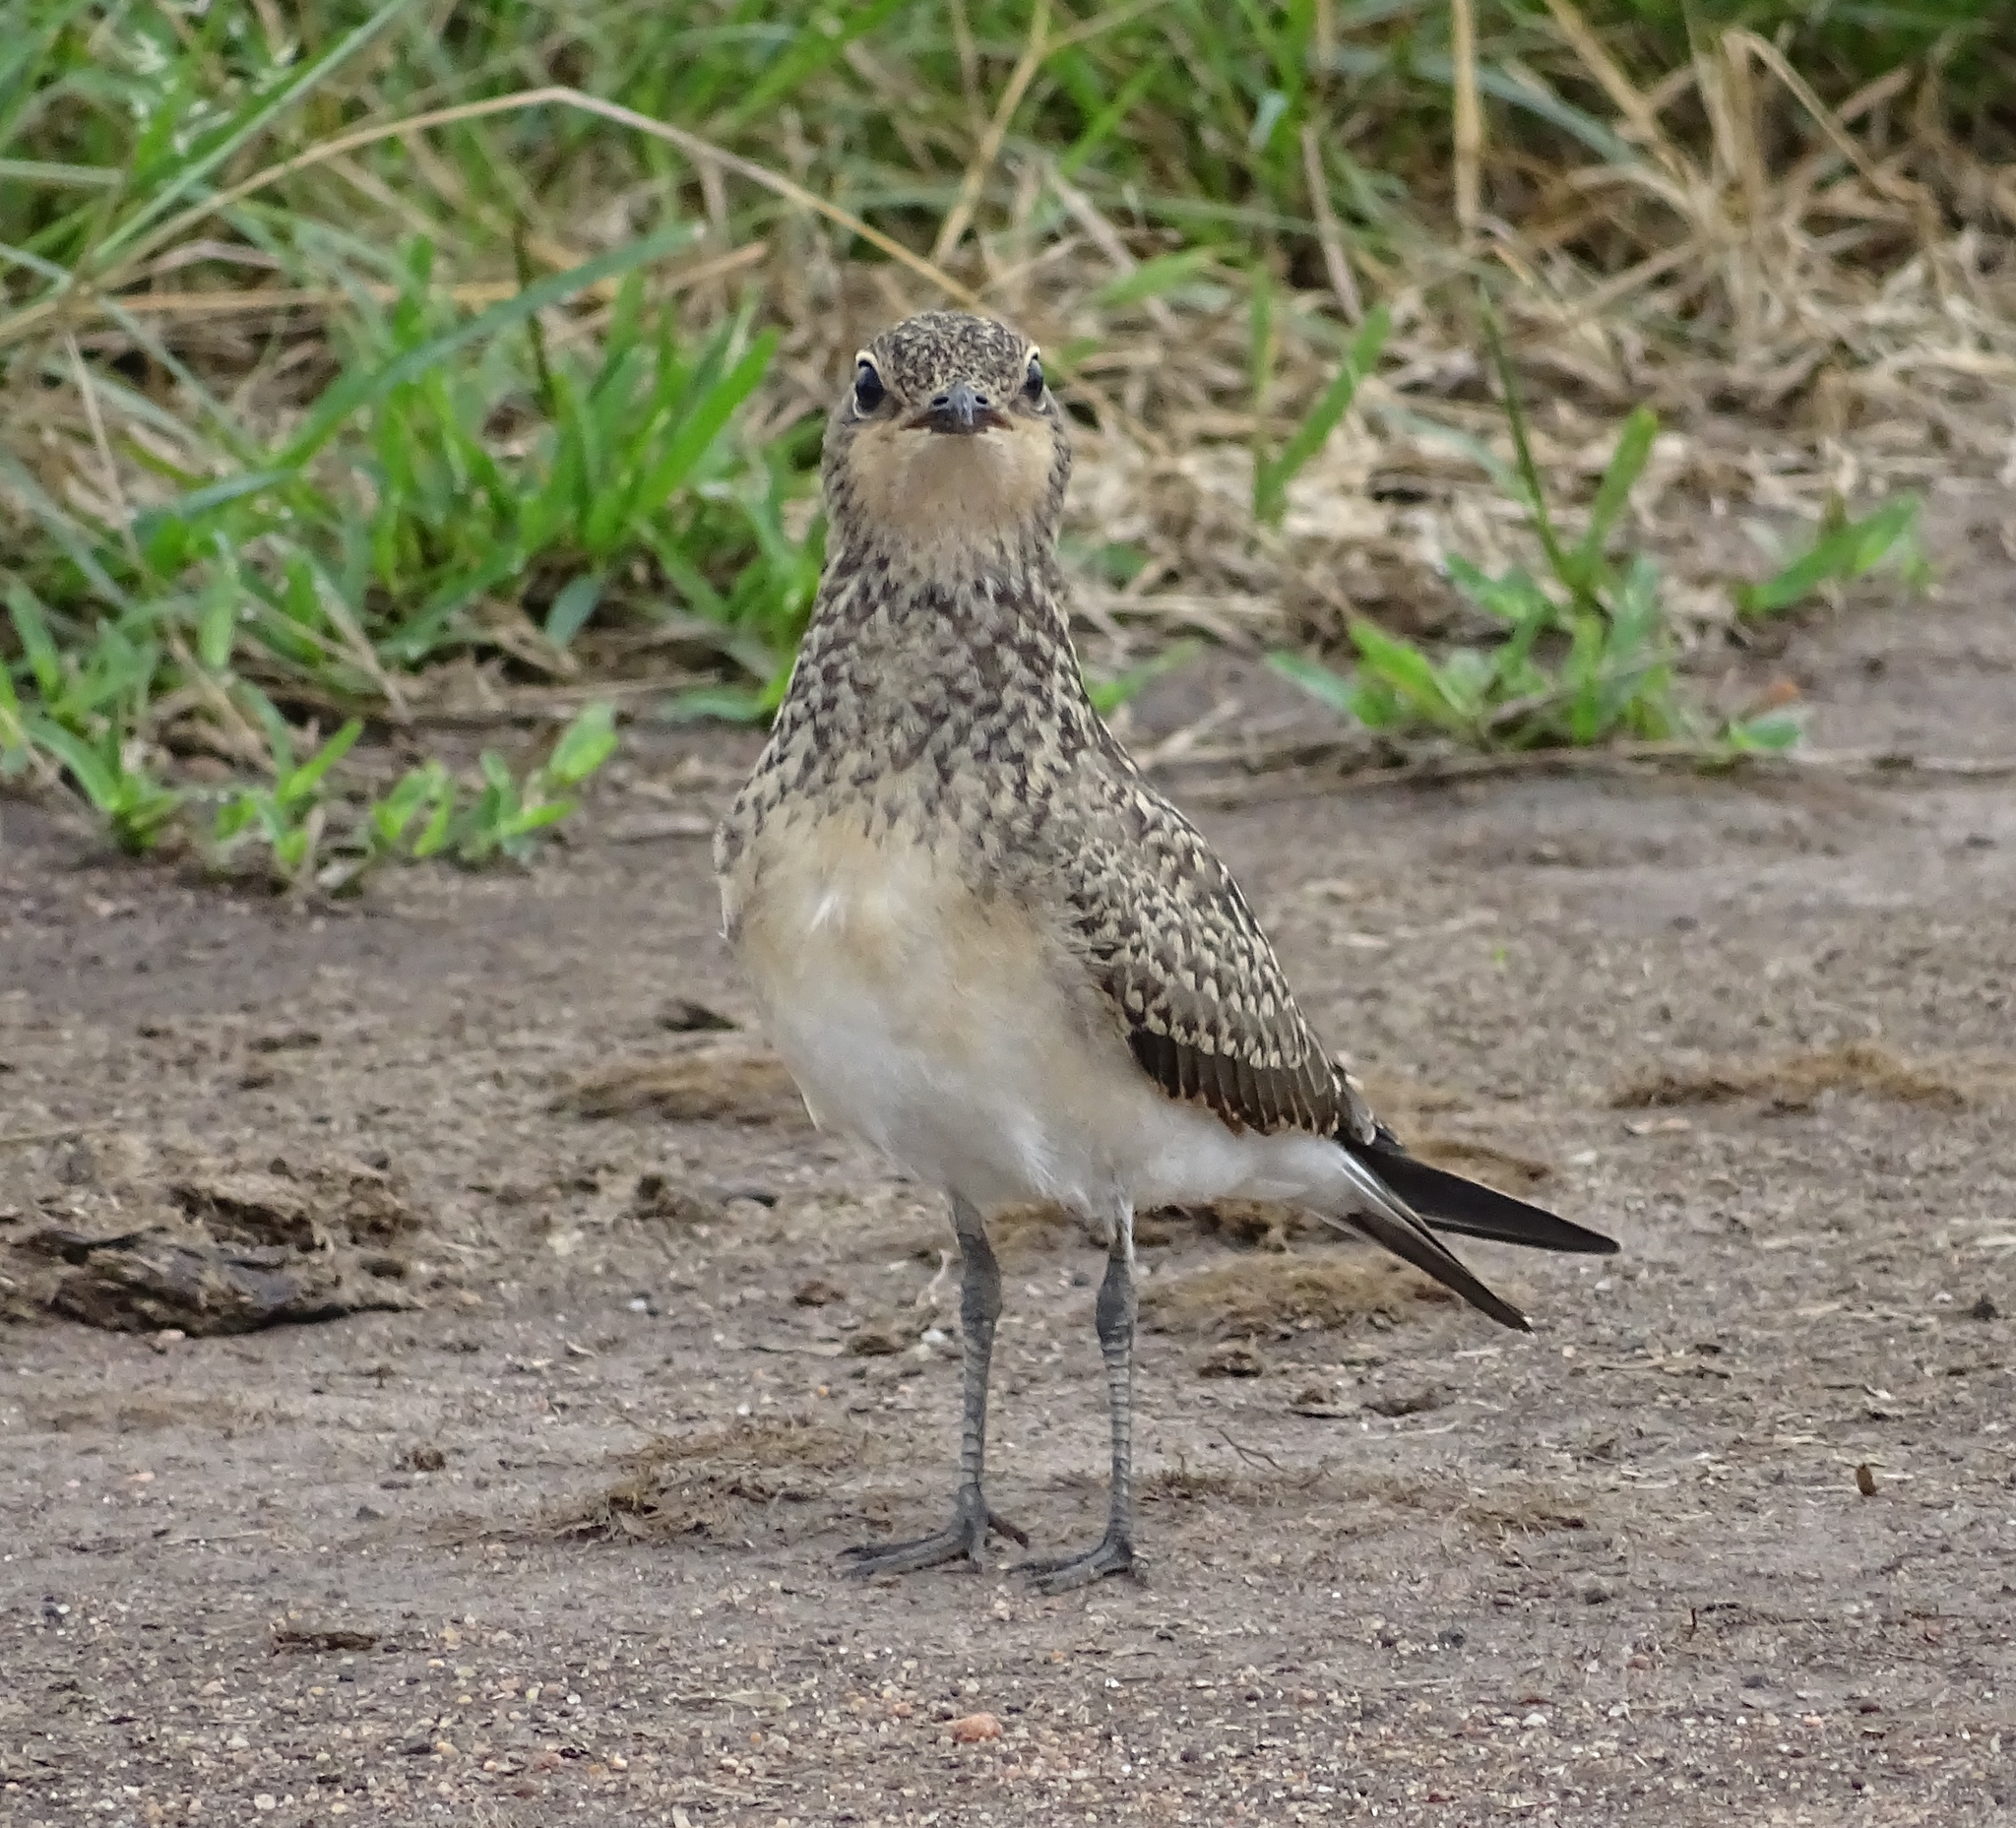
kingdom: Animalia
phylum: Chordata
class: Aves
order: Charadriiformes
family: Glareolidae
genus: Glareola
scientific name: Glareola pratincola
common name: Collared pratincole
